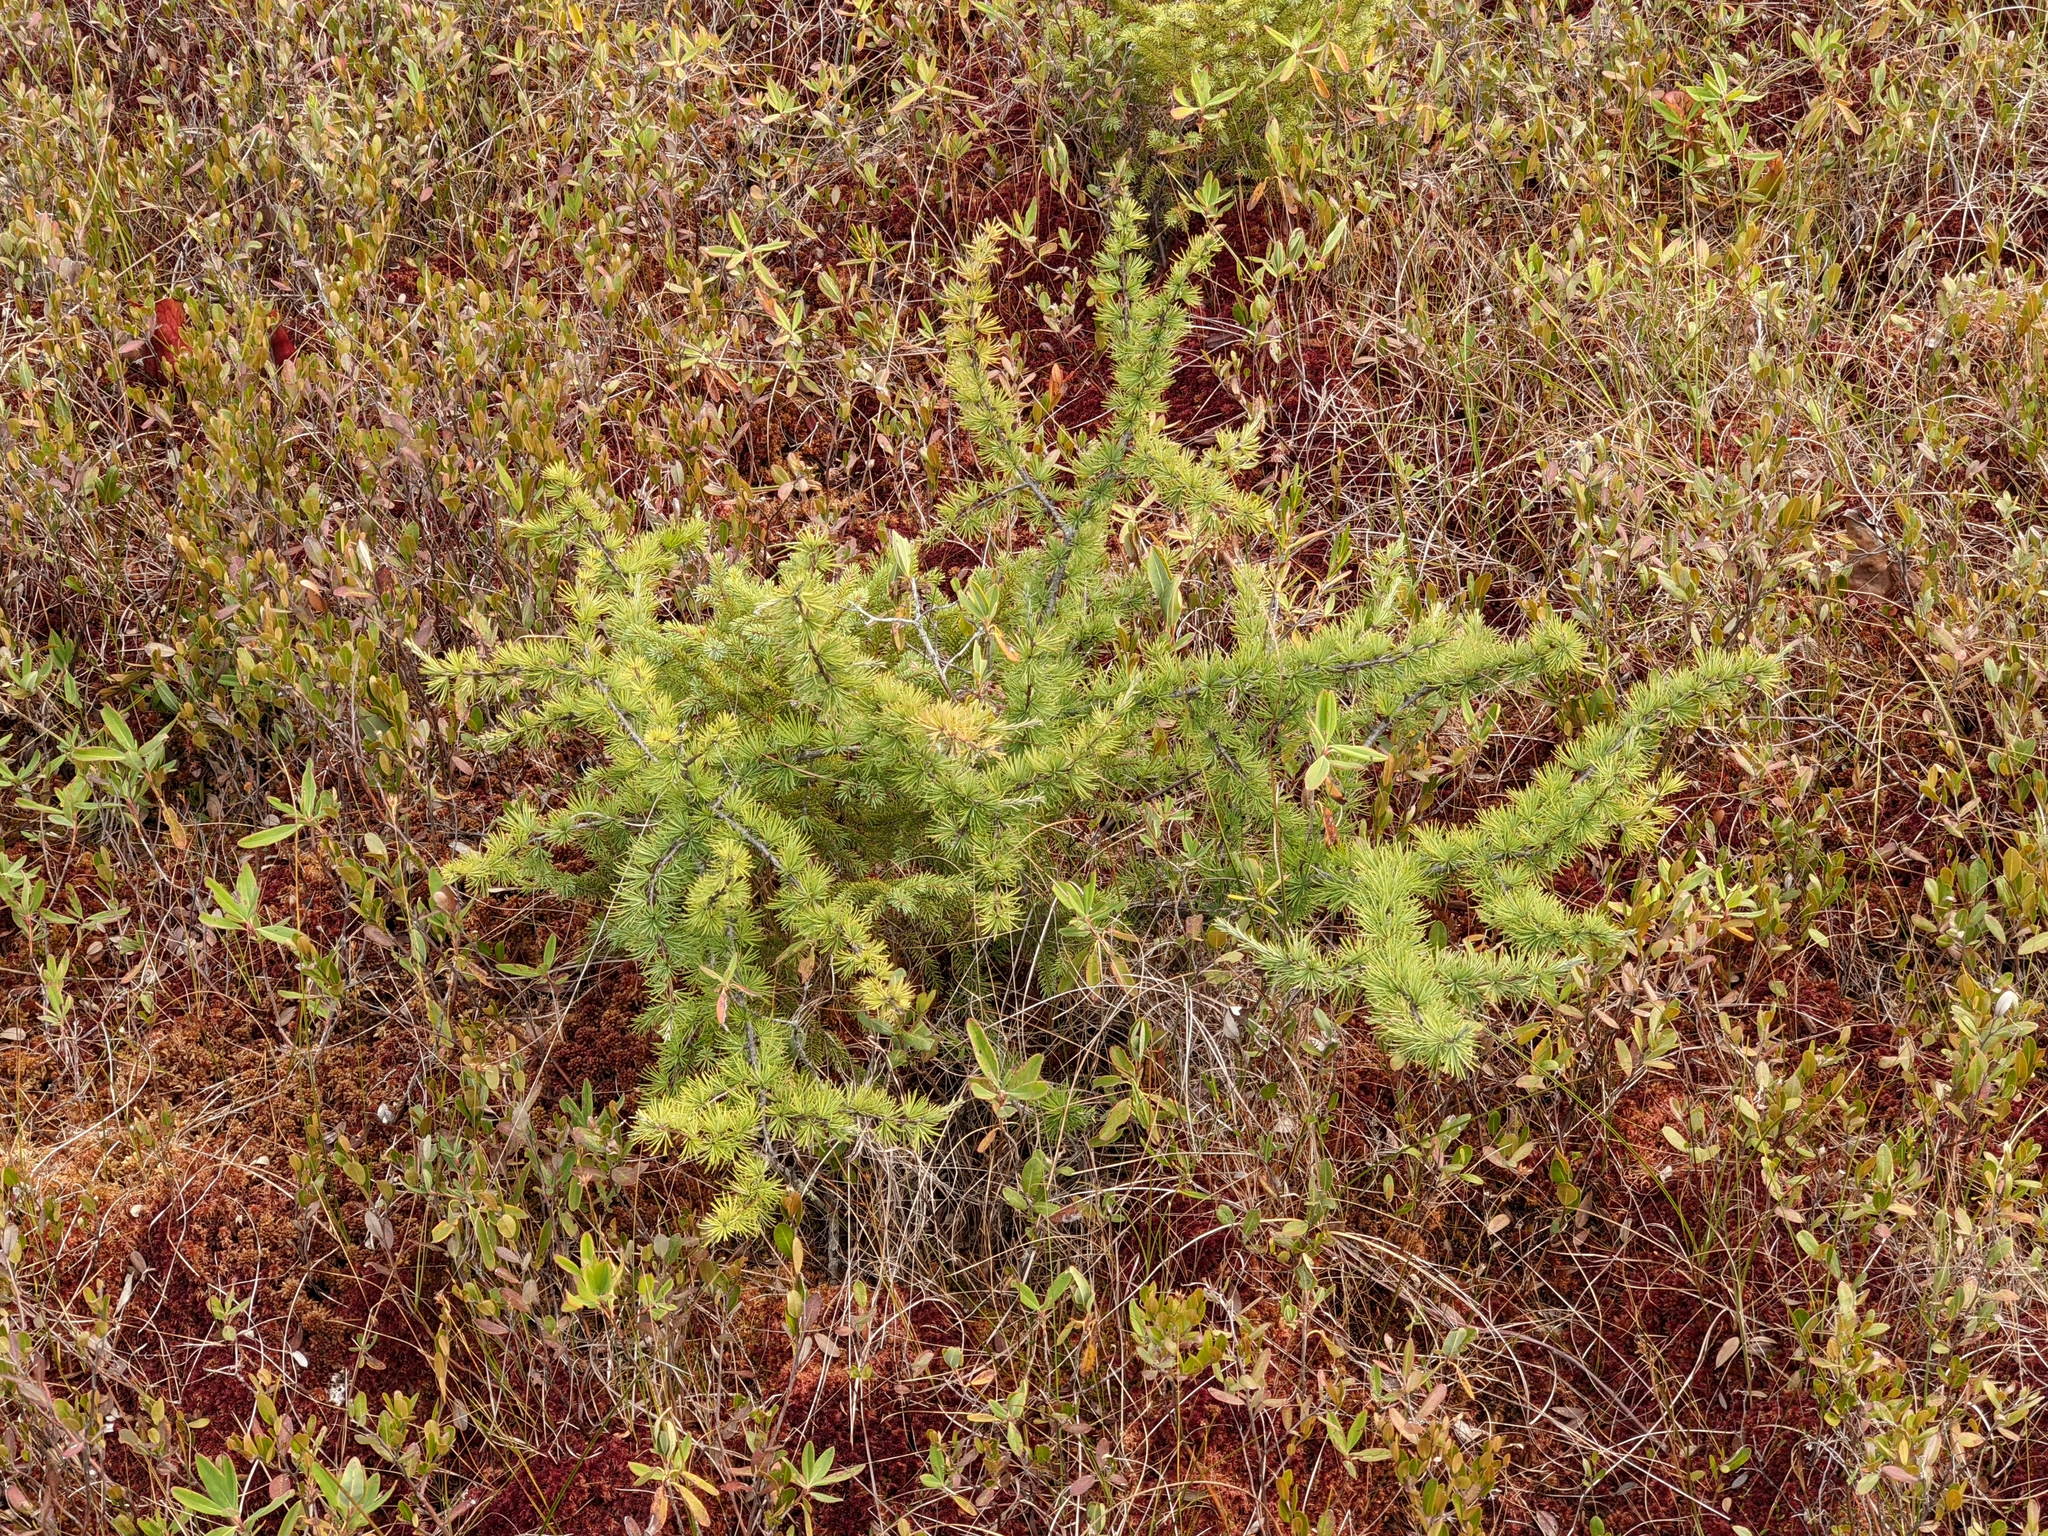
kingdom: Plantae
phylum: Tracheophyta
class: Pinopsida
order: Pinales
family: Pinaceae
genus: Larix
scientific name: Larix laricina
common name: American larch
